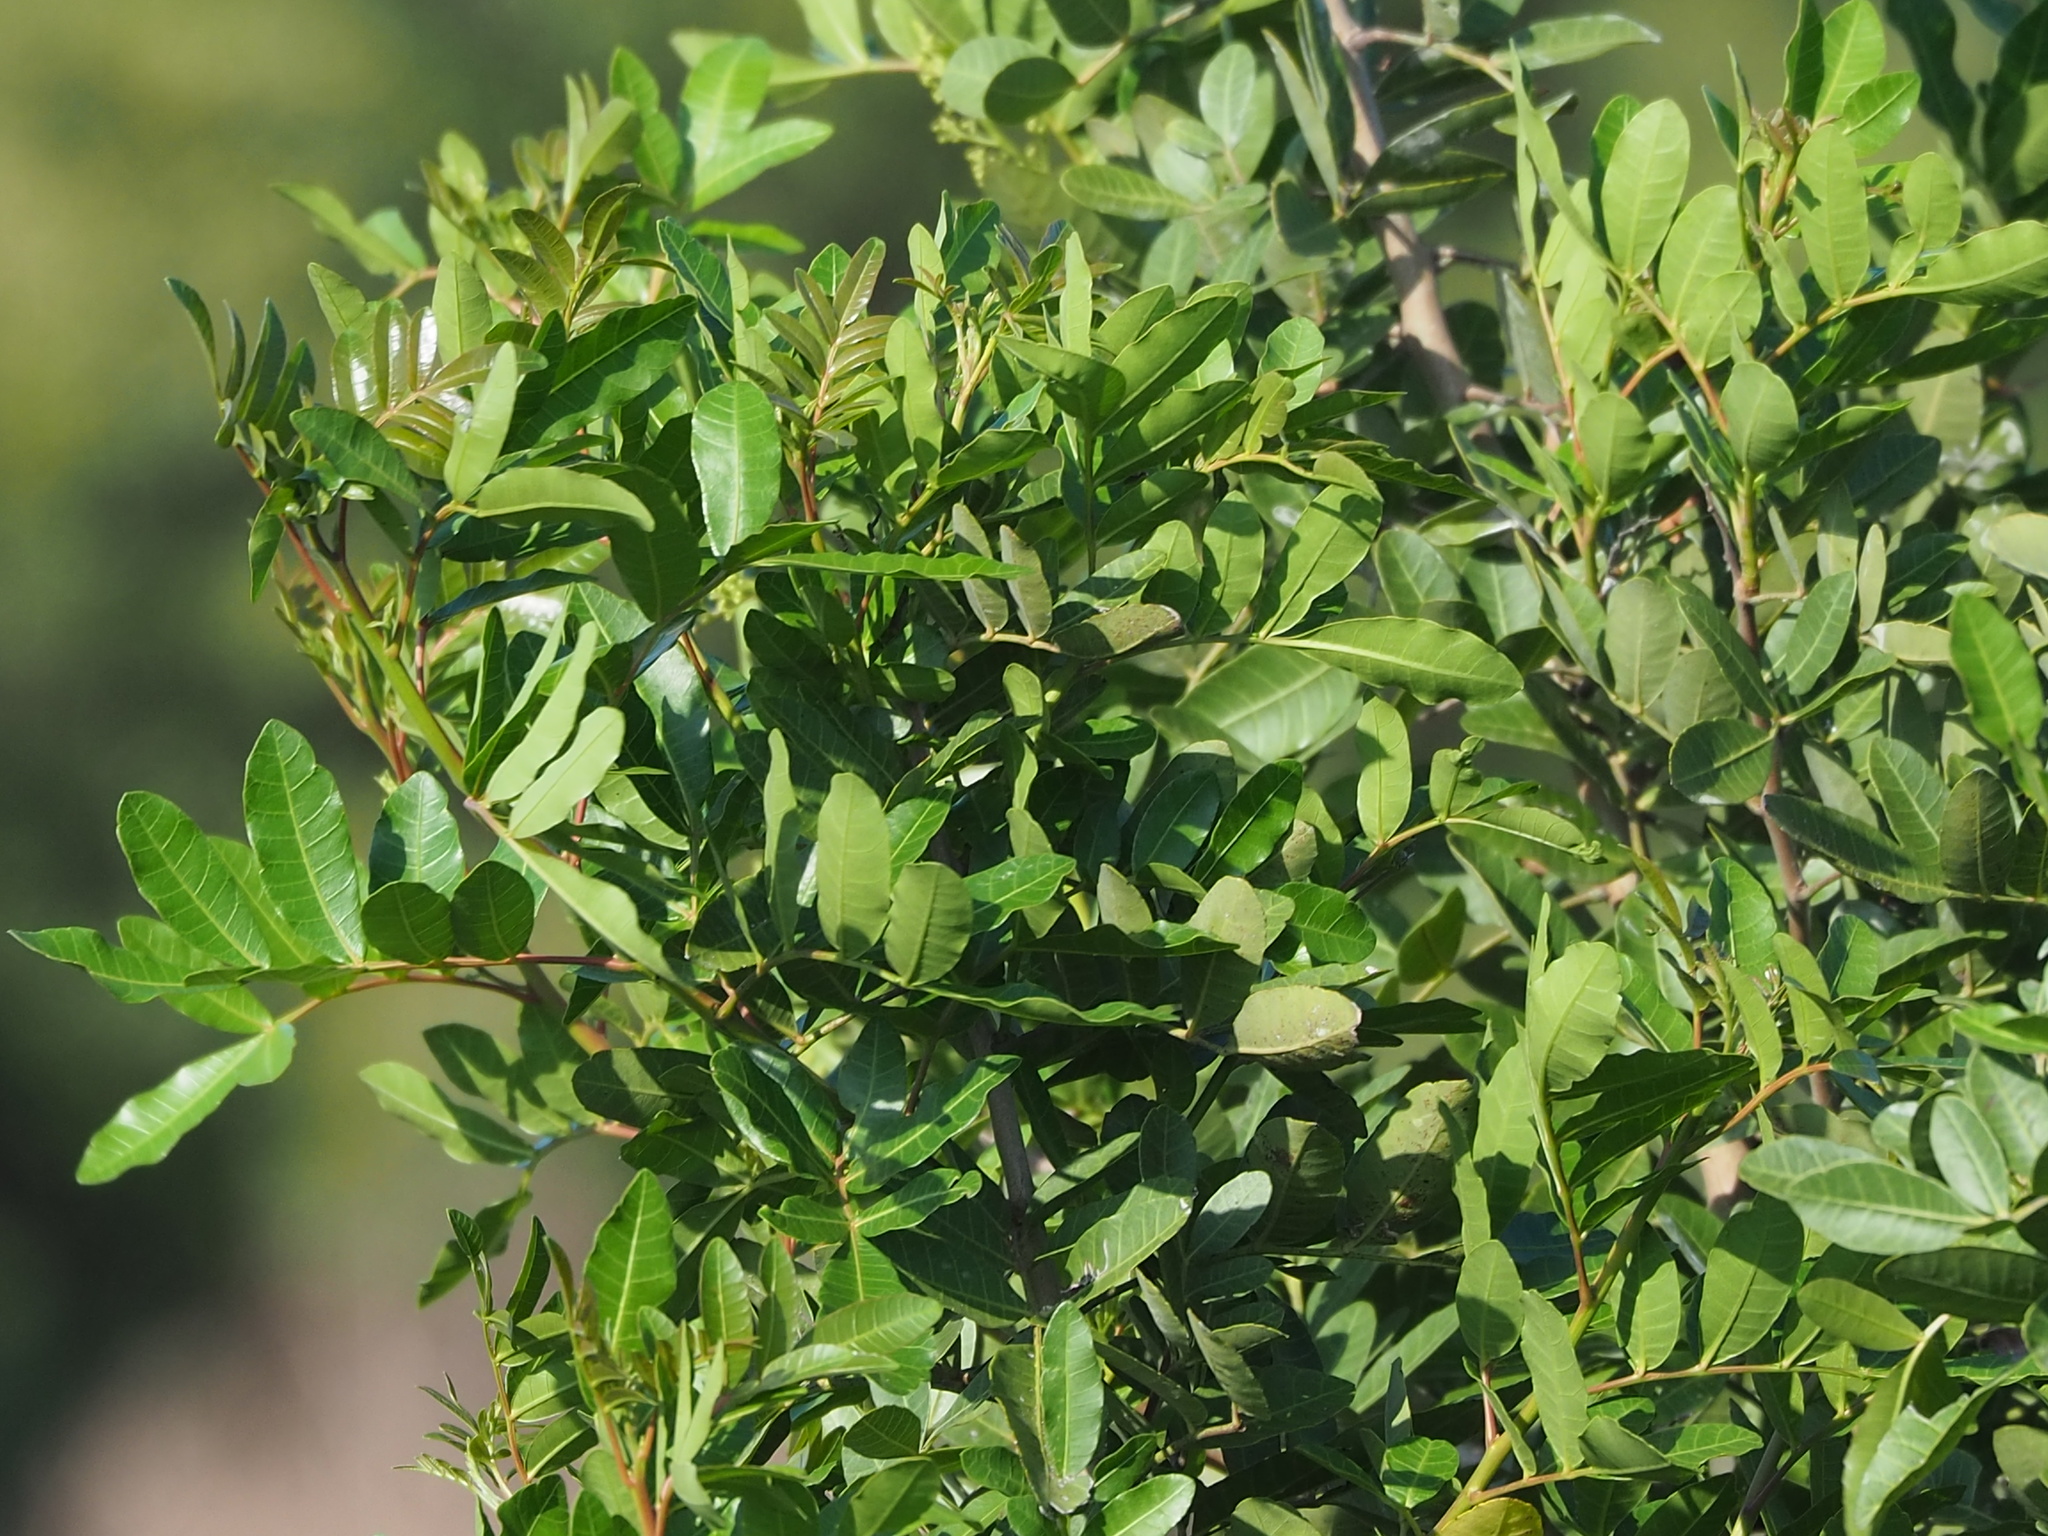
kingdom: Plantae
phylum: Tracheophyta
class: Magnoliopsida
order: Sapindales
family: Anacardiaceae
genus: Schinus
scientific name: Schinus terebinthifolia
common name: Brazilian peppertree
